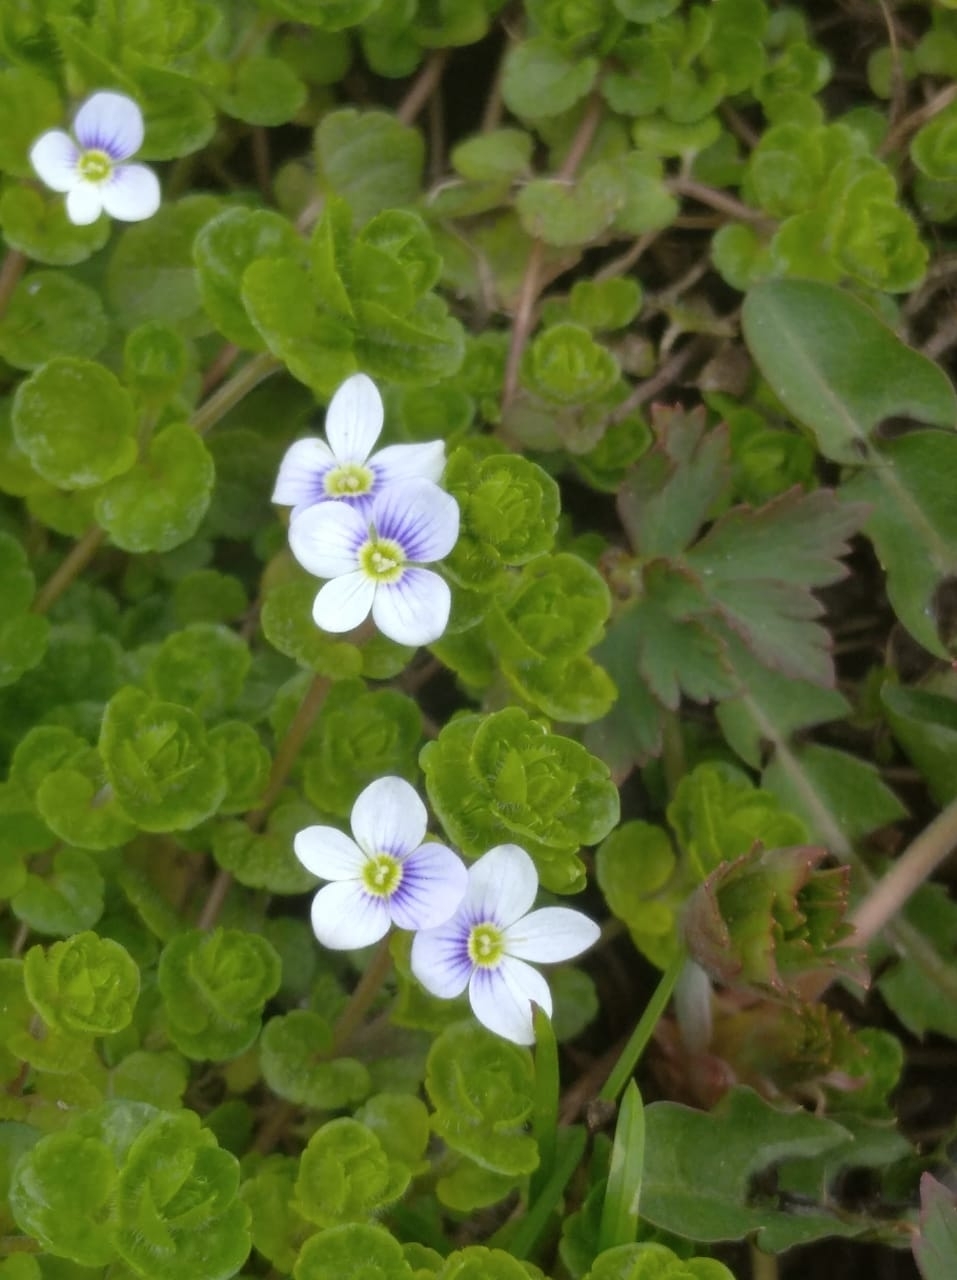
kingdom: Plantae
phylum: Tracheophyta
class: Magnoliopsida
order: Lamiales
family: Plantaginaceae
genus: Veronica
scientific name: Veronica filiformis
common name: Slender speedwell
